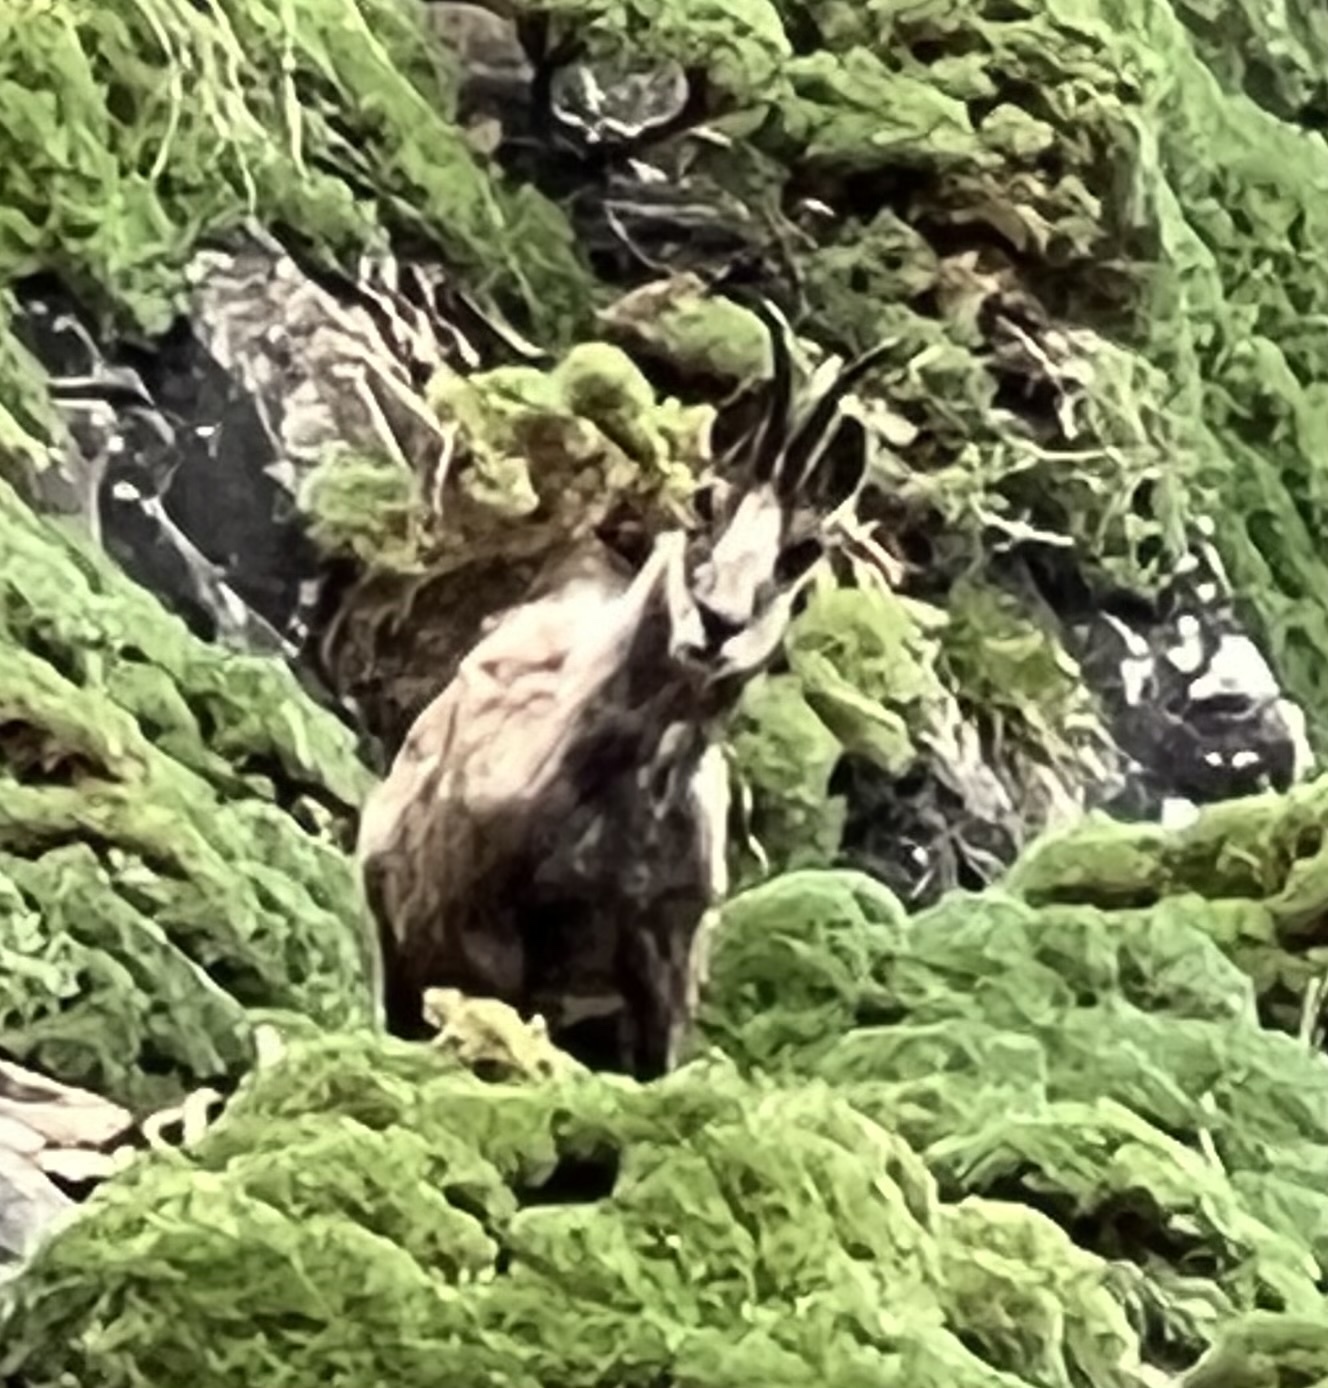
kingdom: Animalia
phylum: Chordata
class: Mammalia
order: Artiodactyla
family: Bovidae
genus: Rupicapra
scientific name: Rupicapra pyrenaica
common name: Pyrenean chamois
